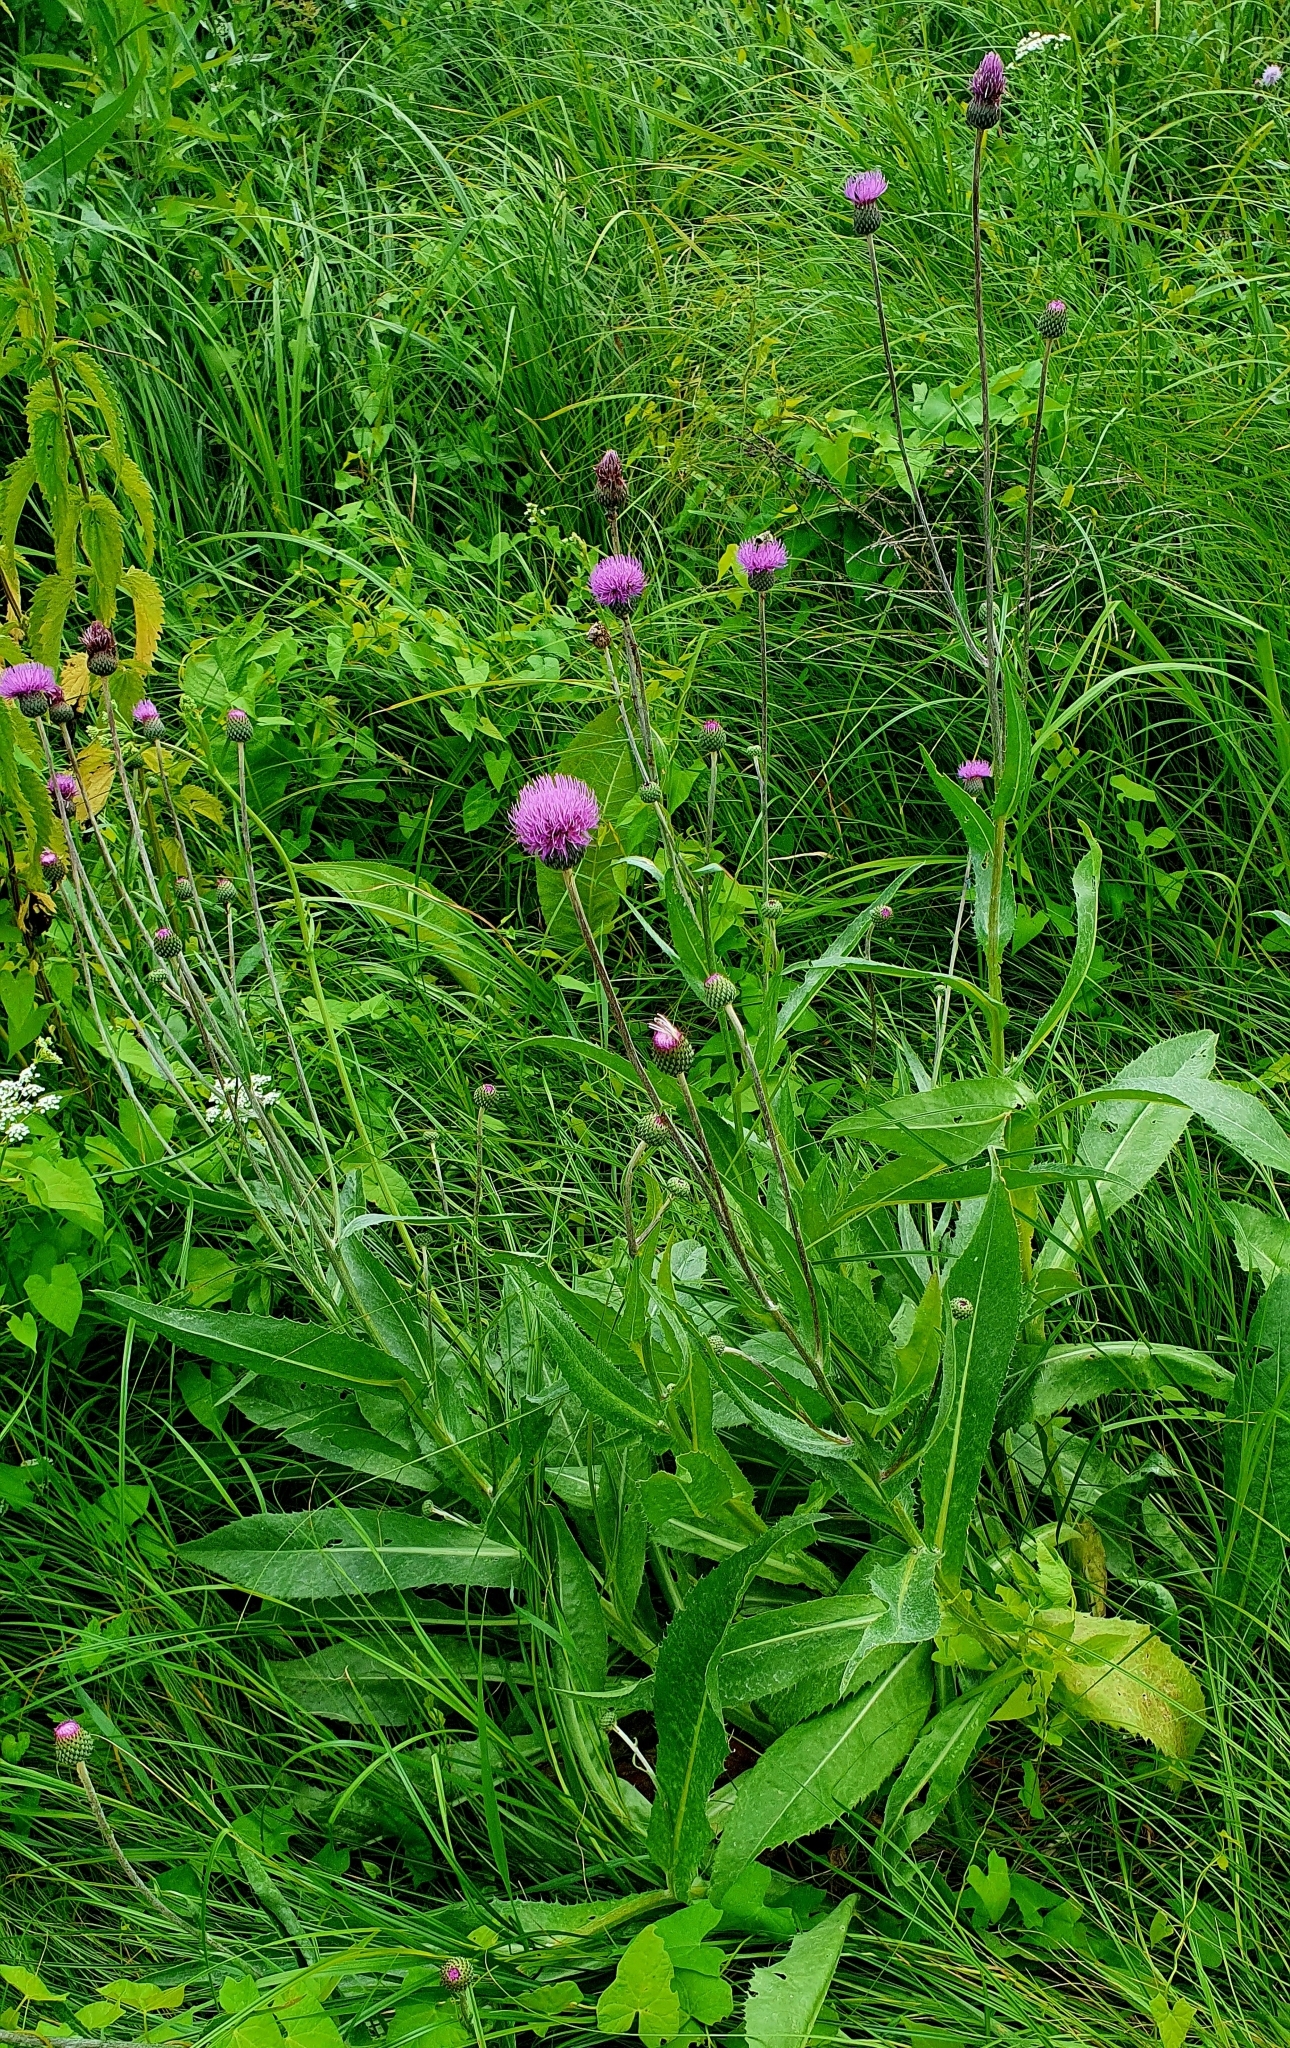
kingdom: Plantae
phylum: Tracheophyta
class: Magnoliopsida
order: Asterales
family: Asteraceae
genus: Cirsium
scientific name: Cirsium canum
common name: Queen anne's thistle
